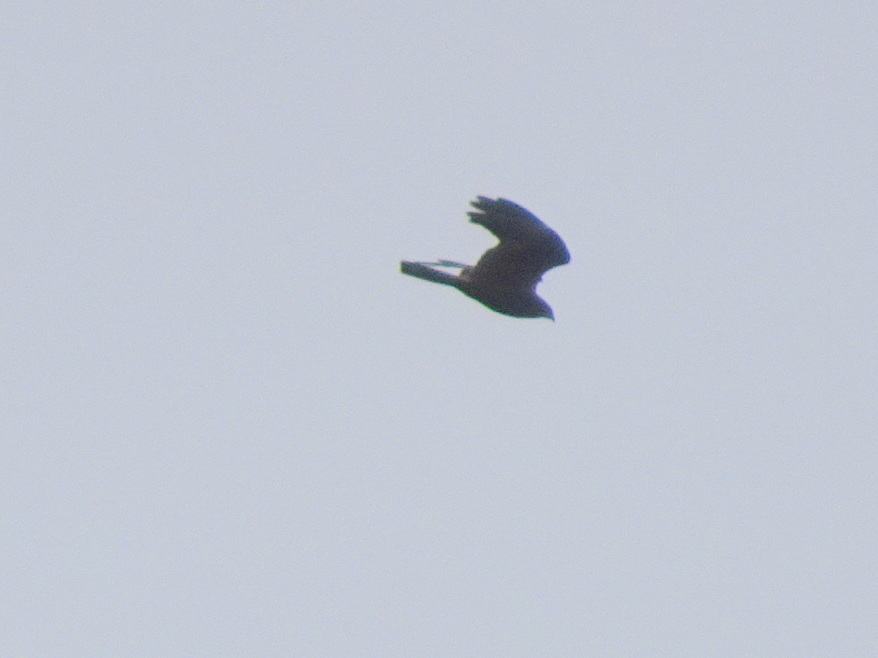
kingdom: Animalia
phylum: Chordata
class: Aves
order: Accipitriformes
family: Accipitridae
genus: Milvus
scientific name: Milvus migrans
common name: Black kite
